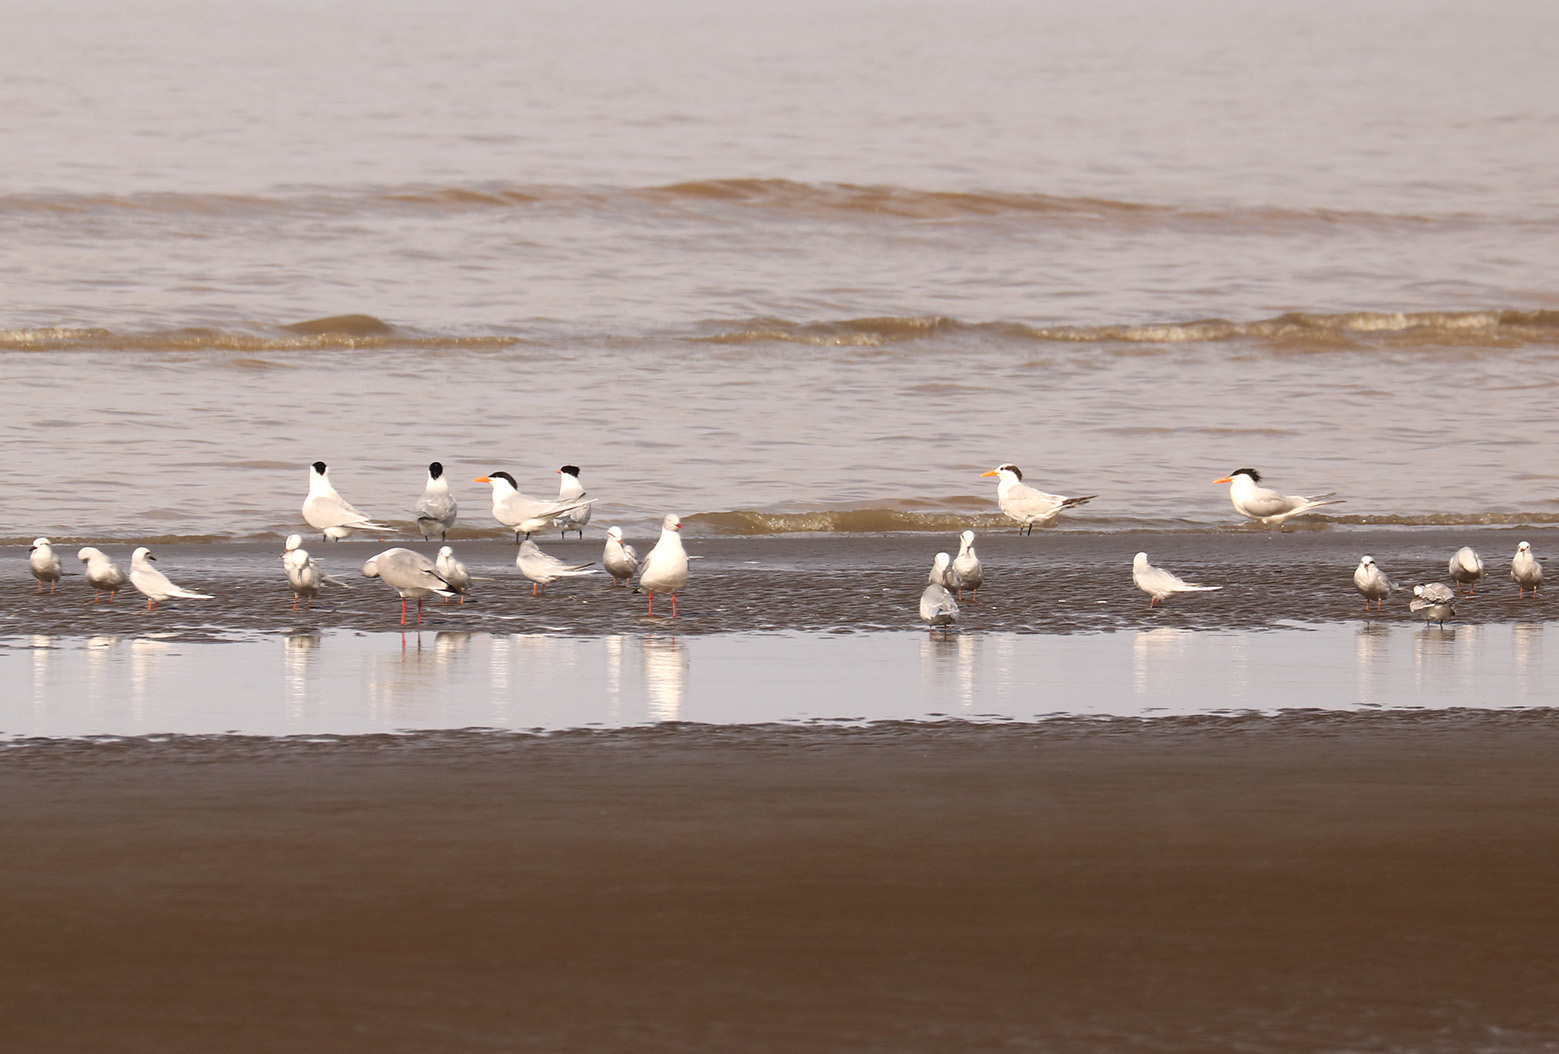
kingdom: Animalia
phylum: Chordata
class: Aves
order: Charadriiformes
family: Laridae
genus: Thalasseus
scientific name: Thalasseus maximus
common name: Royal tern
